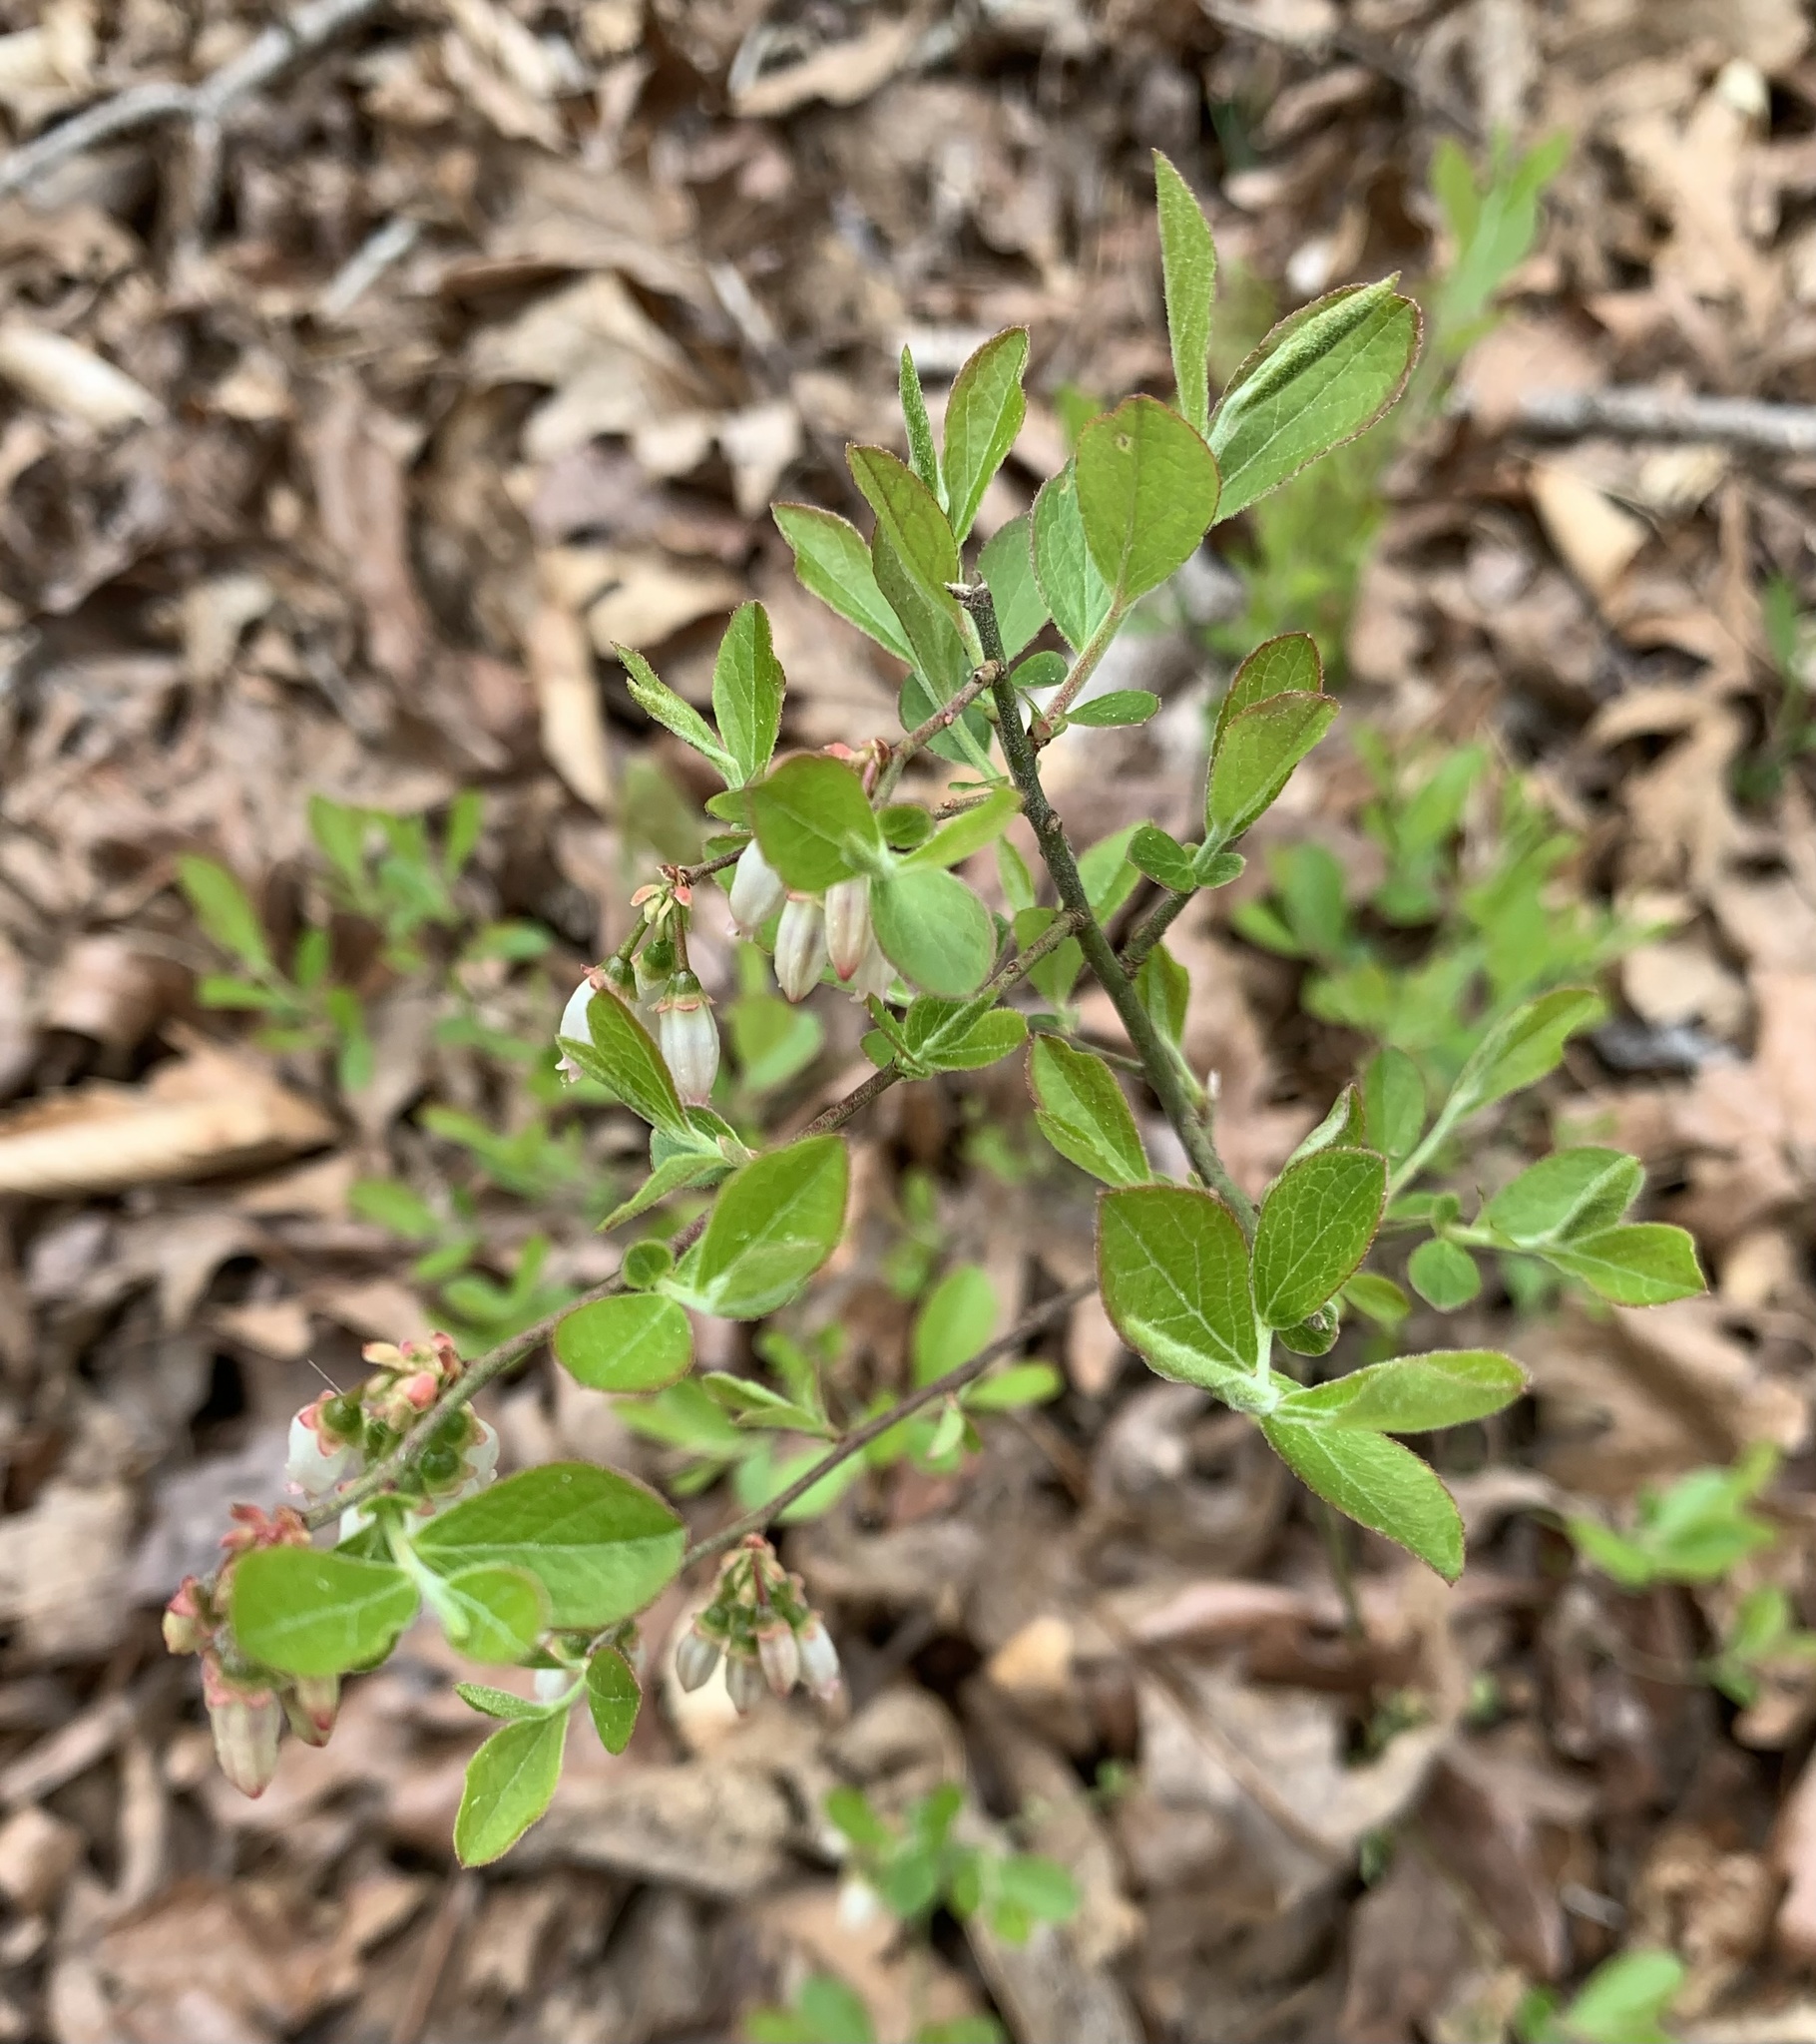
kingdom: Plantae
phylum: Tracheophyta
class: Magnoliopsida
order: Ericales
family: Ericaceae
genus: Vaccinium
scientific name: Vaccinium pallidum
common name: Blue ridge blueberry
